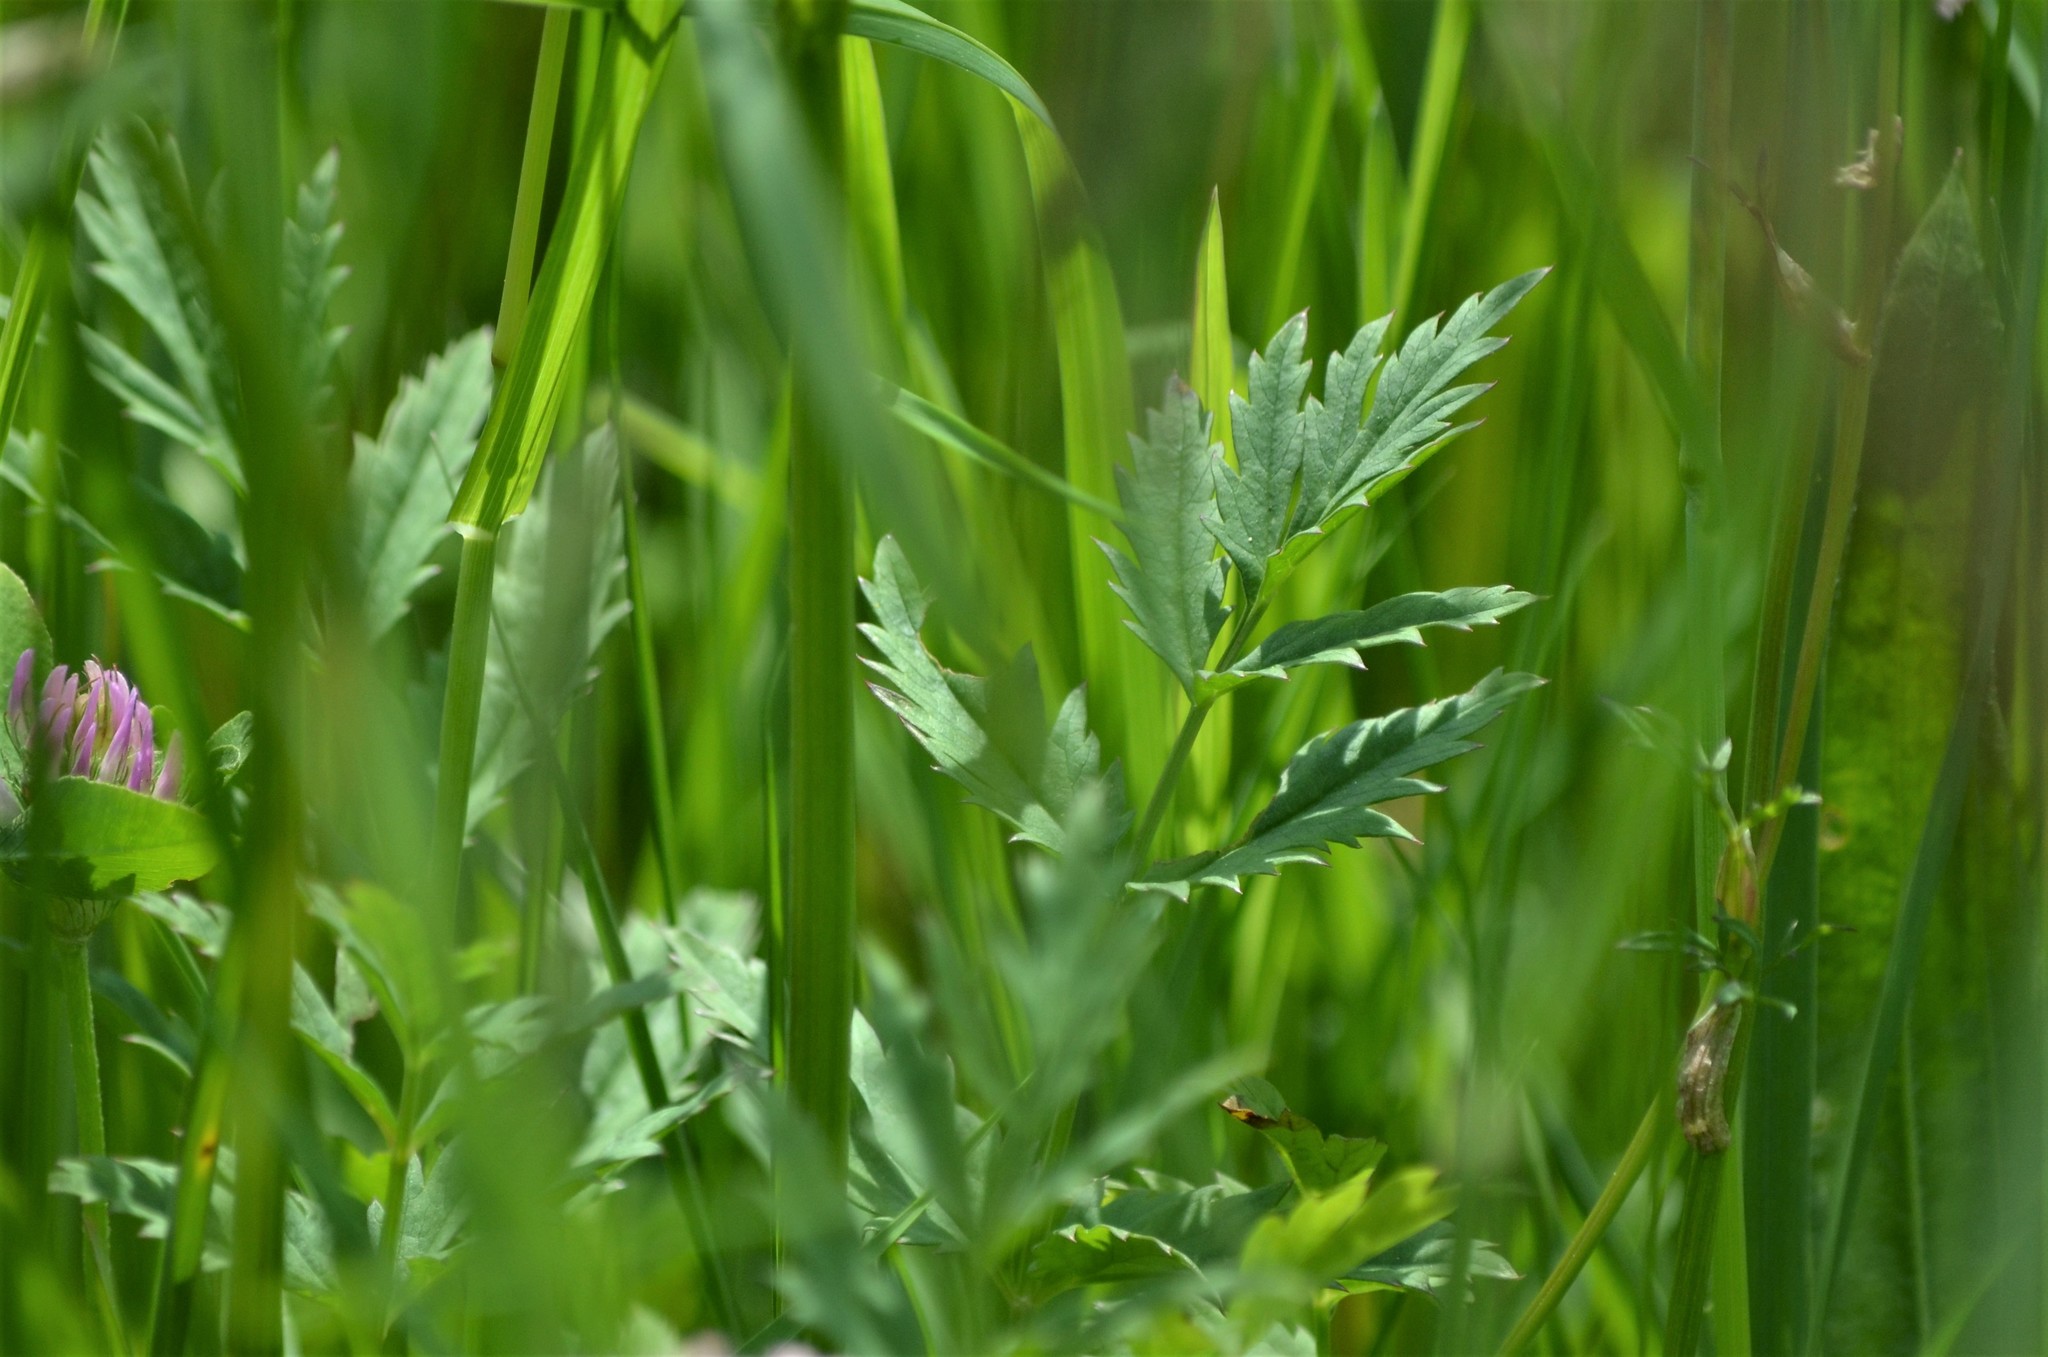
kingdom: Plantae
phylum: Tracheophyta
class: Magnoliopsida
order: Apiales
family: Apiaceae
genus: Pimpinella
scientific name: Pimpinella major
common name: Greater burnet-saxifrage
